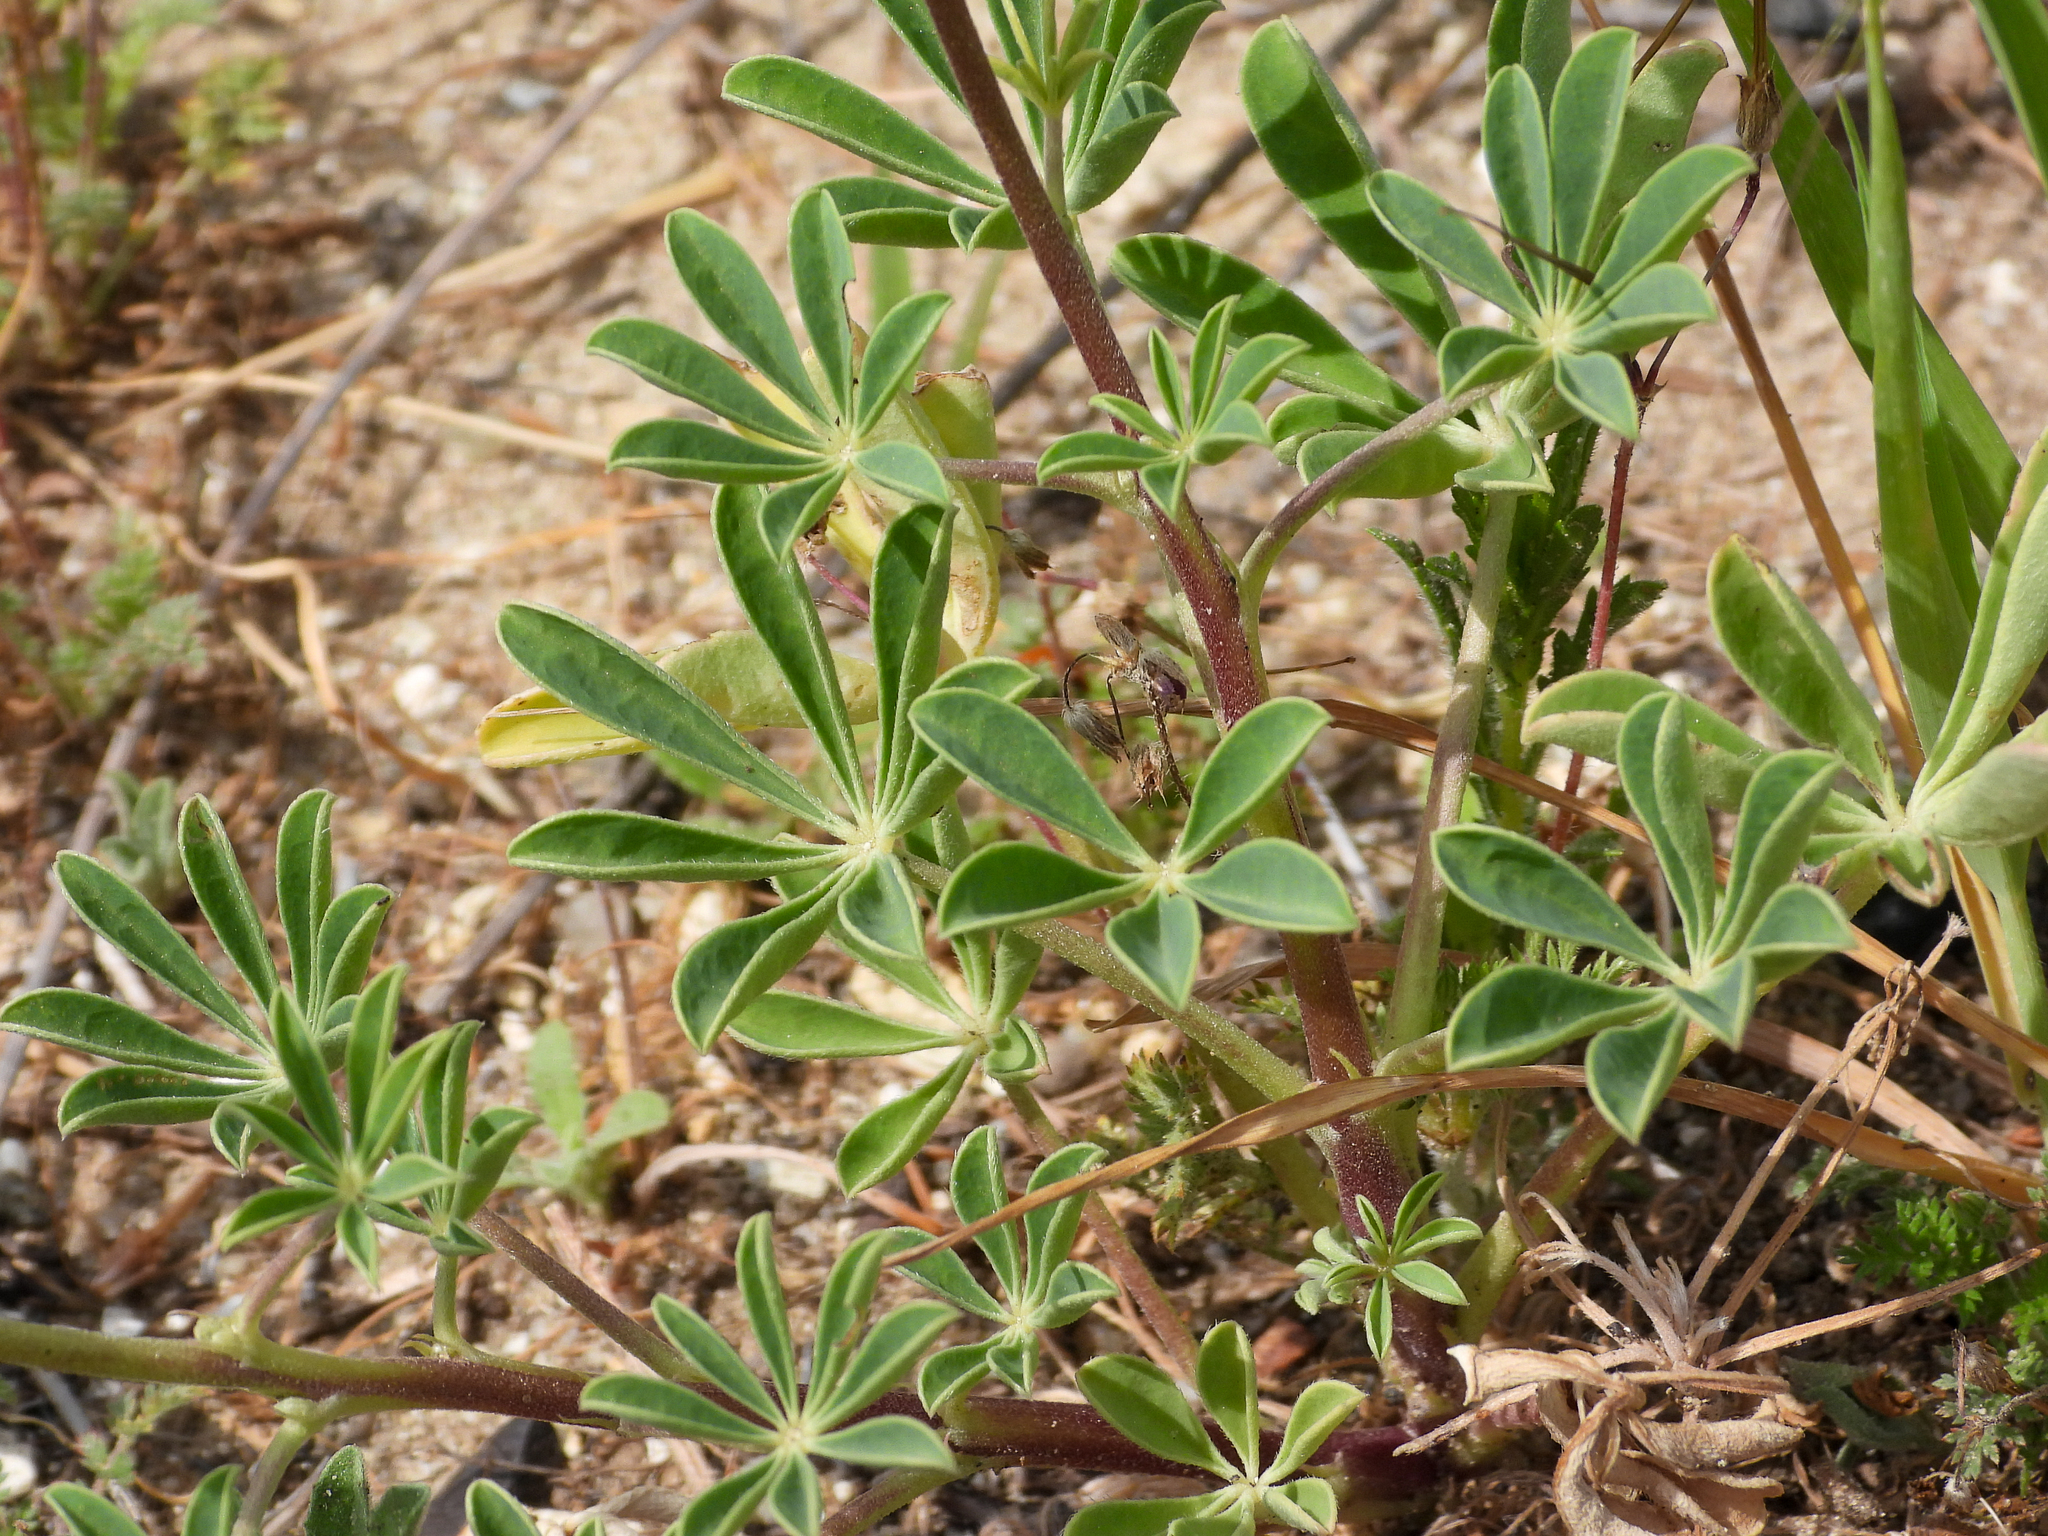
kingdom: Plantae
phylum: Tracheophyta
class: Magnoliopsida
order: Fabales
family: Fabaceae
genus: Lupinus
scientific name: Lupinus succulentus
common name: Arroyo lupine
